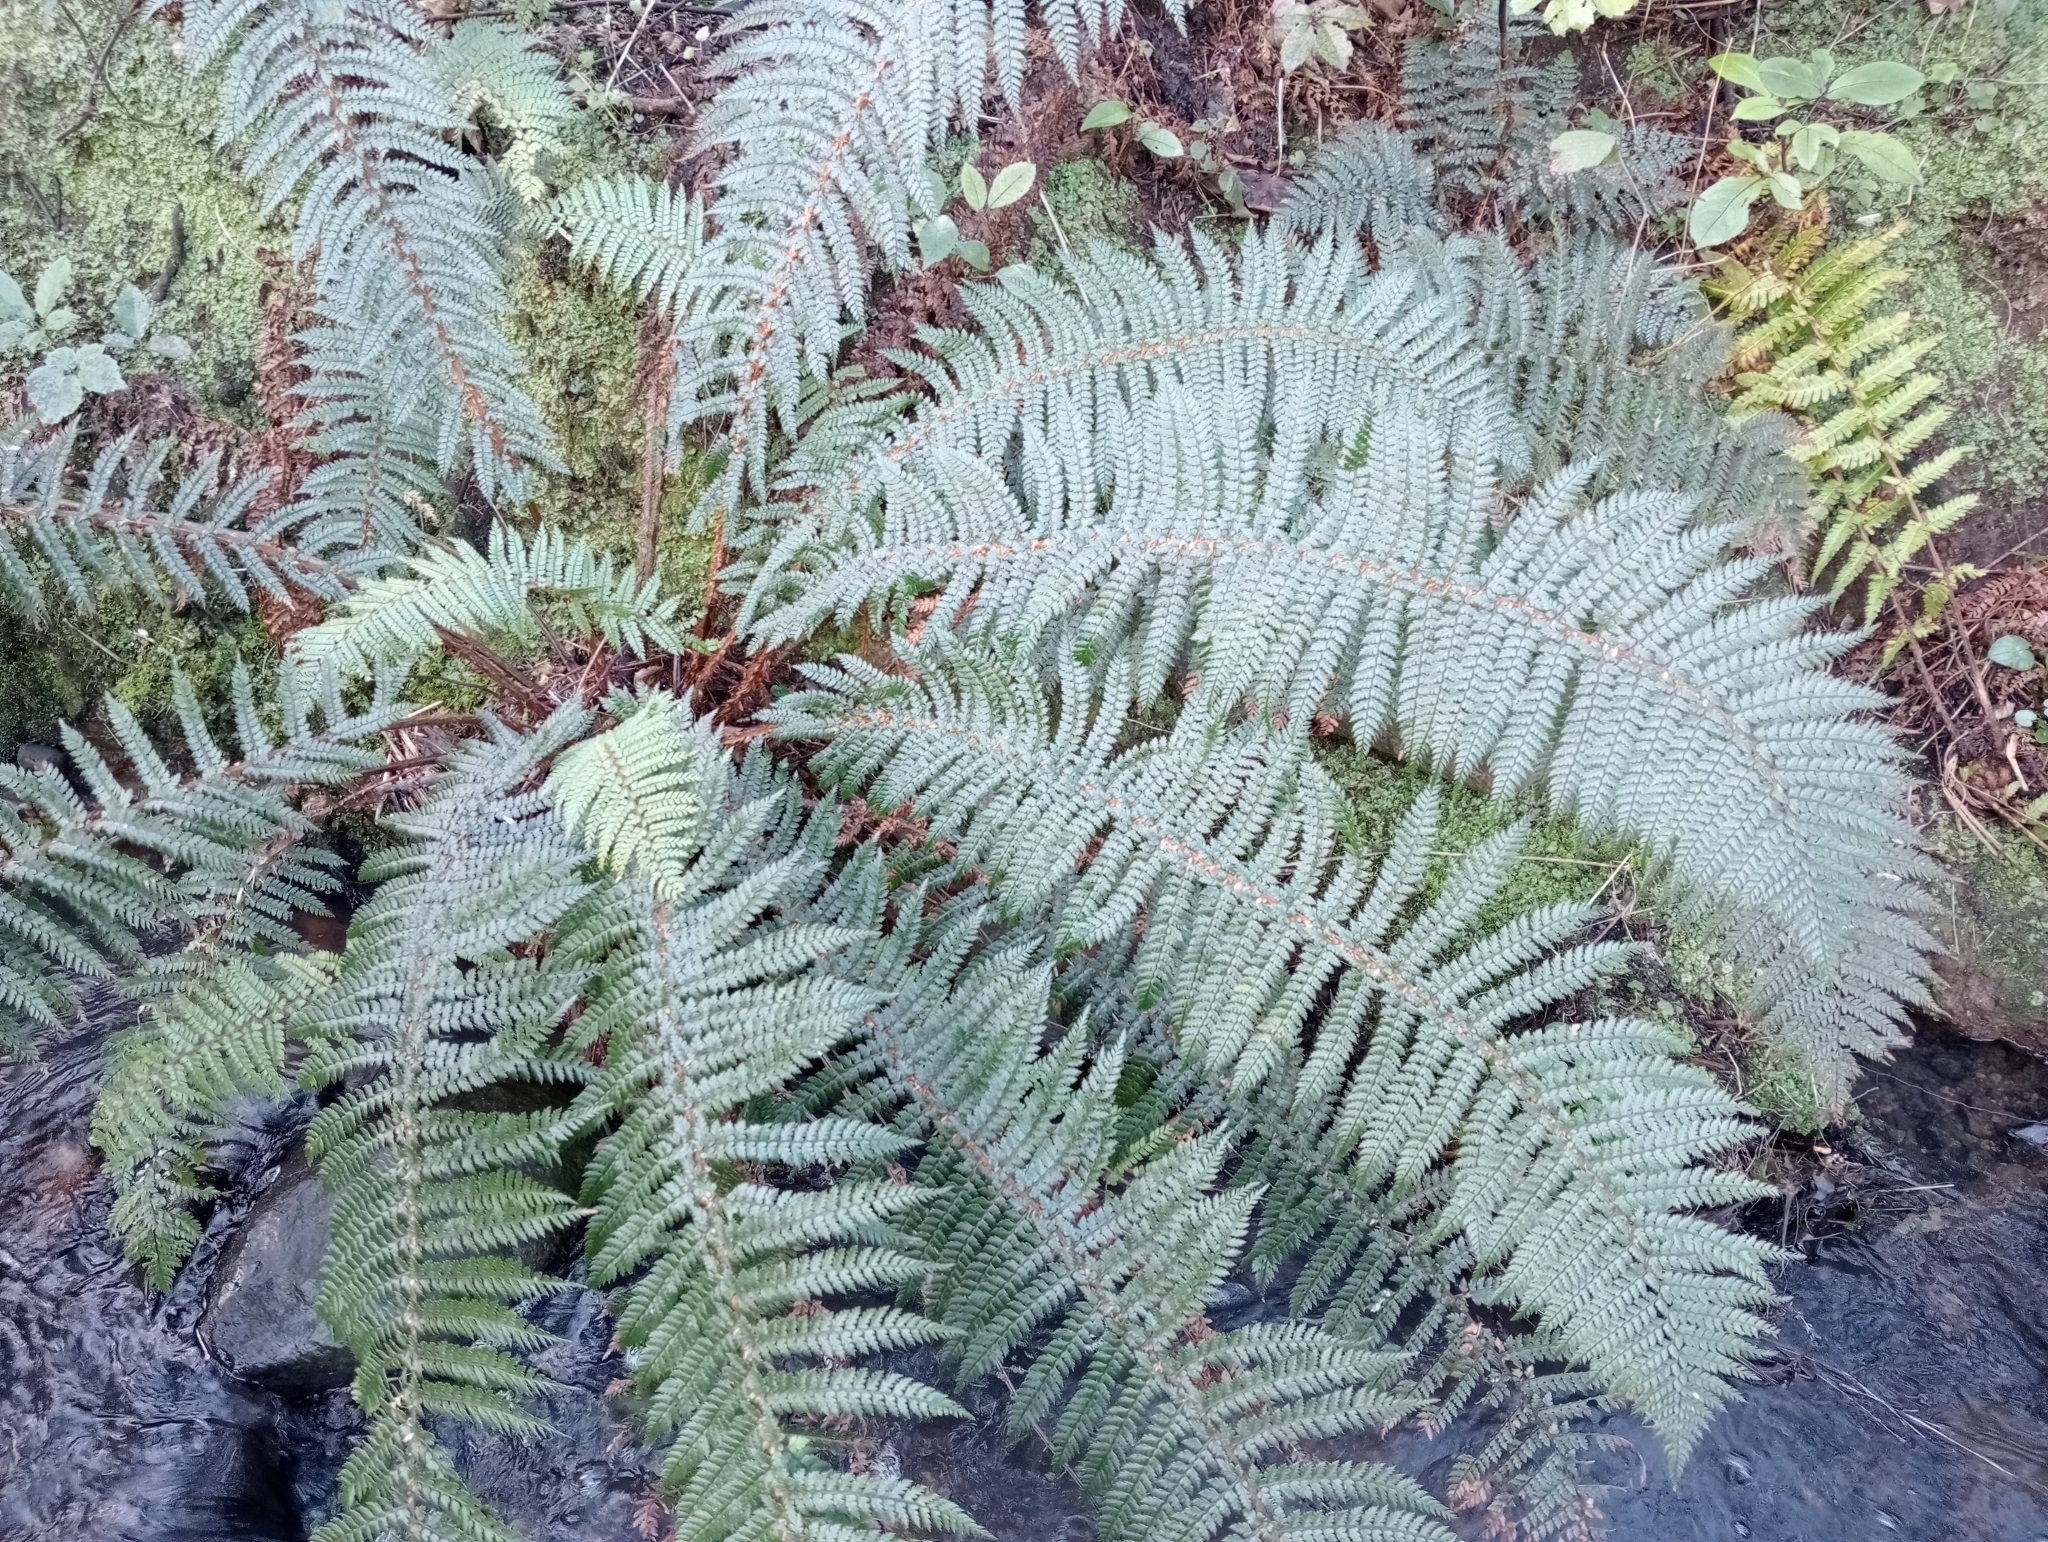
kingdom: Plantae
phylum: Tracheophyta
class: Polypodiopsida
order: Polypodiales
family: Dryopteridaceae
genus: Polystichum
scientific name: Polystichum vestitum
